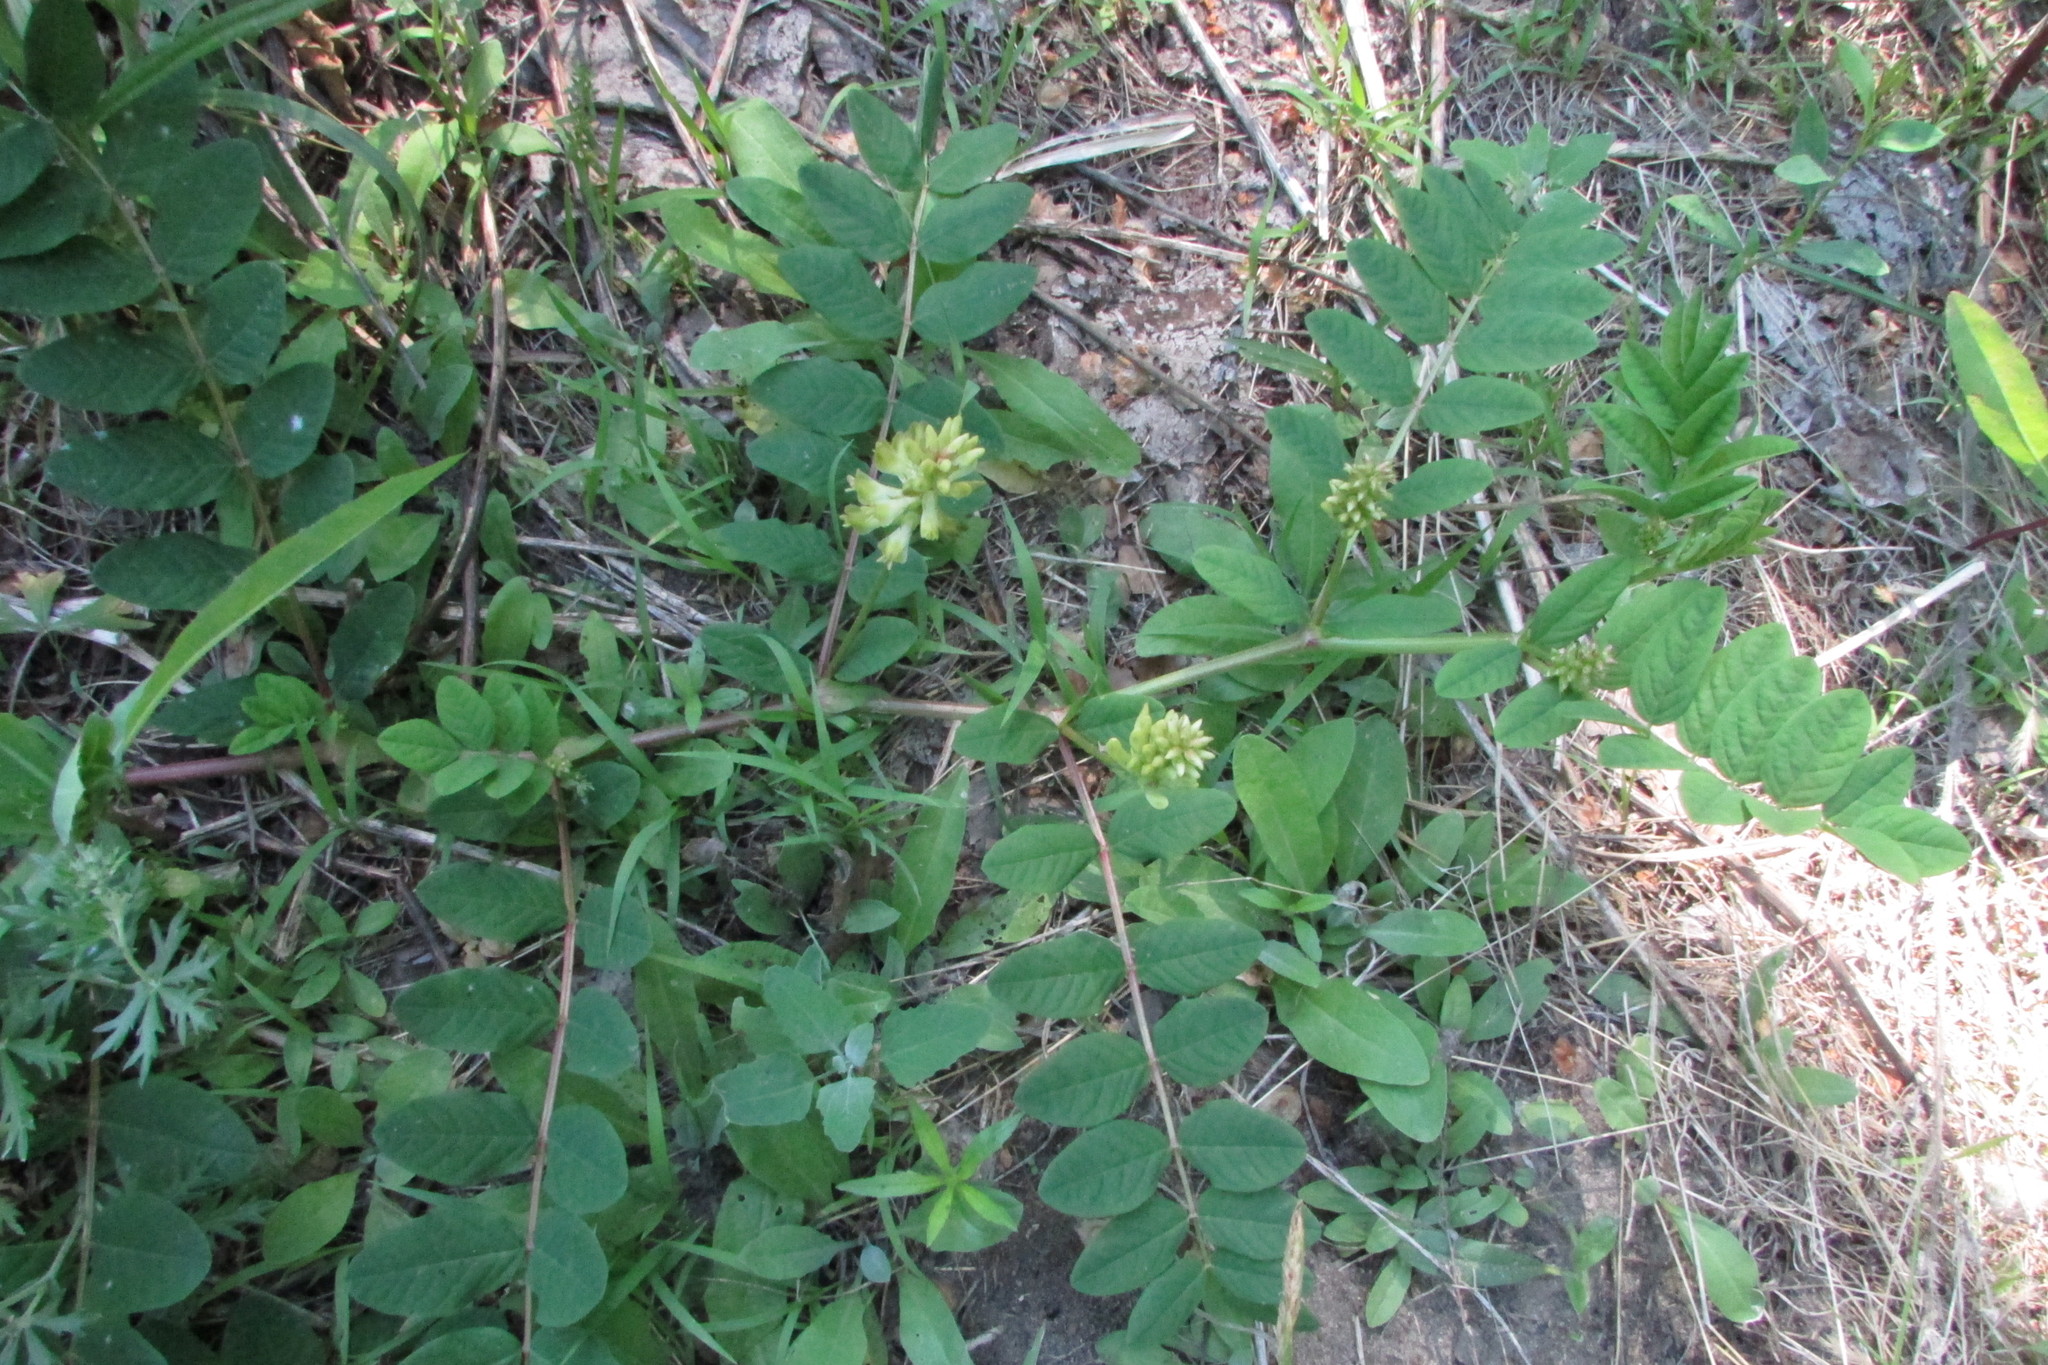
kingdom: Plantae
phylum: Tracheophyta
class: Magnoliopsida
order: Fabales
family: Fabaceae
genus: Astragalus
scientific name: Astragalus glycyphyllos
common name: Wild liquorice
